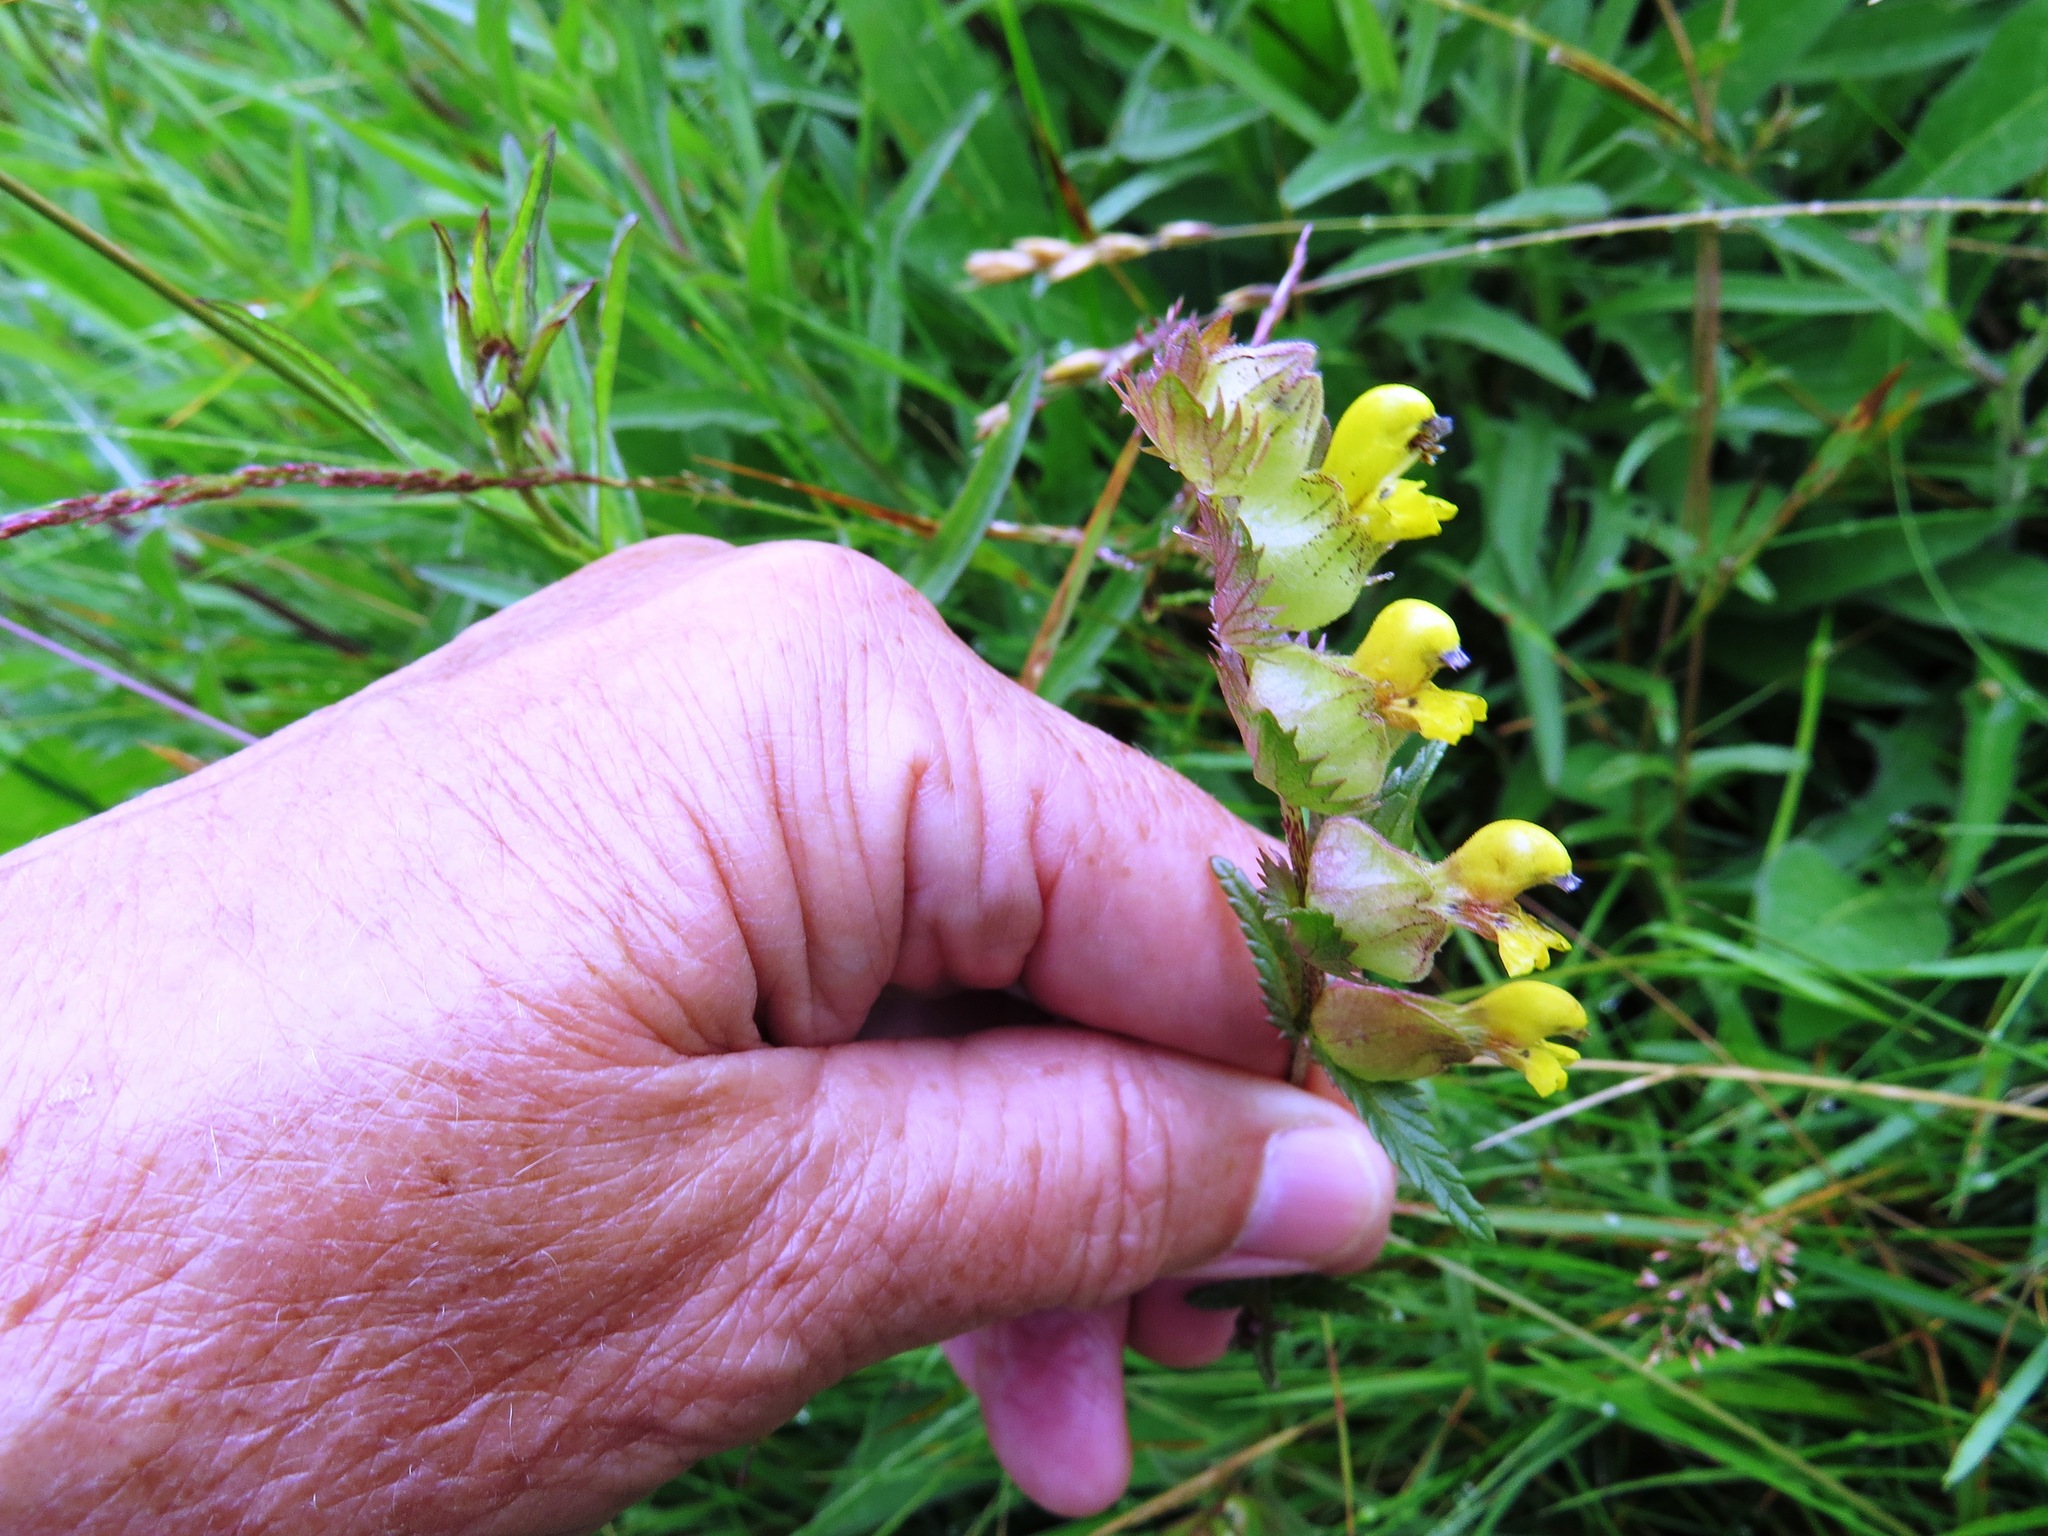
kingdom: Plantae
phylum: Tracheophyta
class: Magnoliopsida
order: Lamiales
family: Orobanchaceae
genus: Rhinanthus
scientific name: Rhinanthus minor
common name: Yellow-rattle
